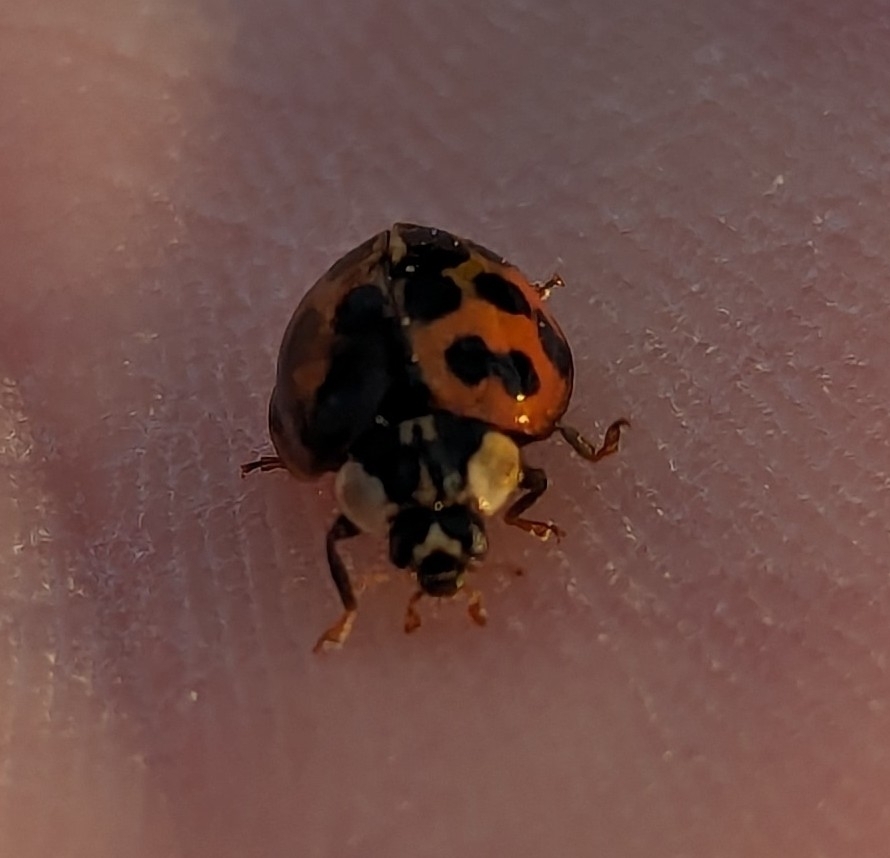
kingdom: Animalia
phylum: Arthropoda
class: Insecta
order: Coleoptera
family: Coccinellidae
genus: Harmonia
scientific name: Harmonia axyridis
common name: Harlequin ladybird
